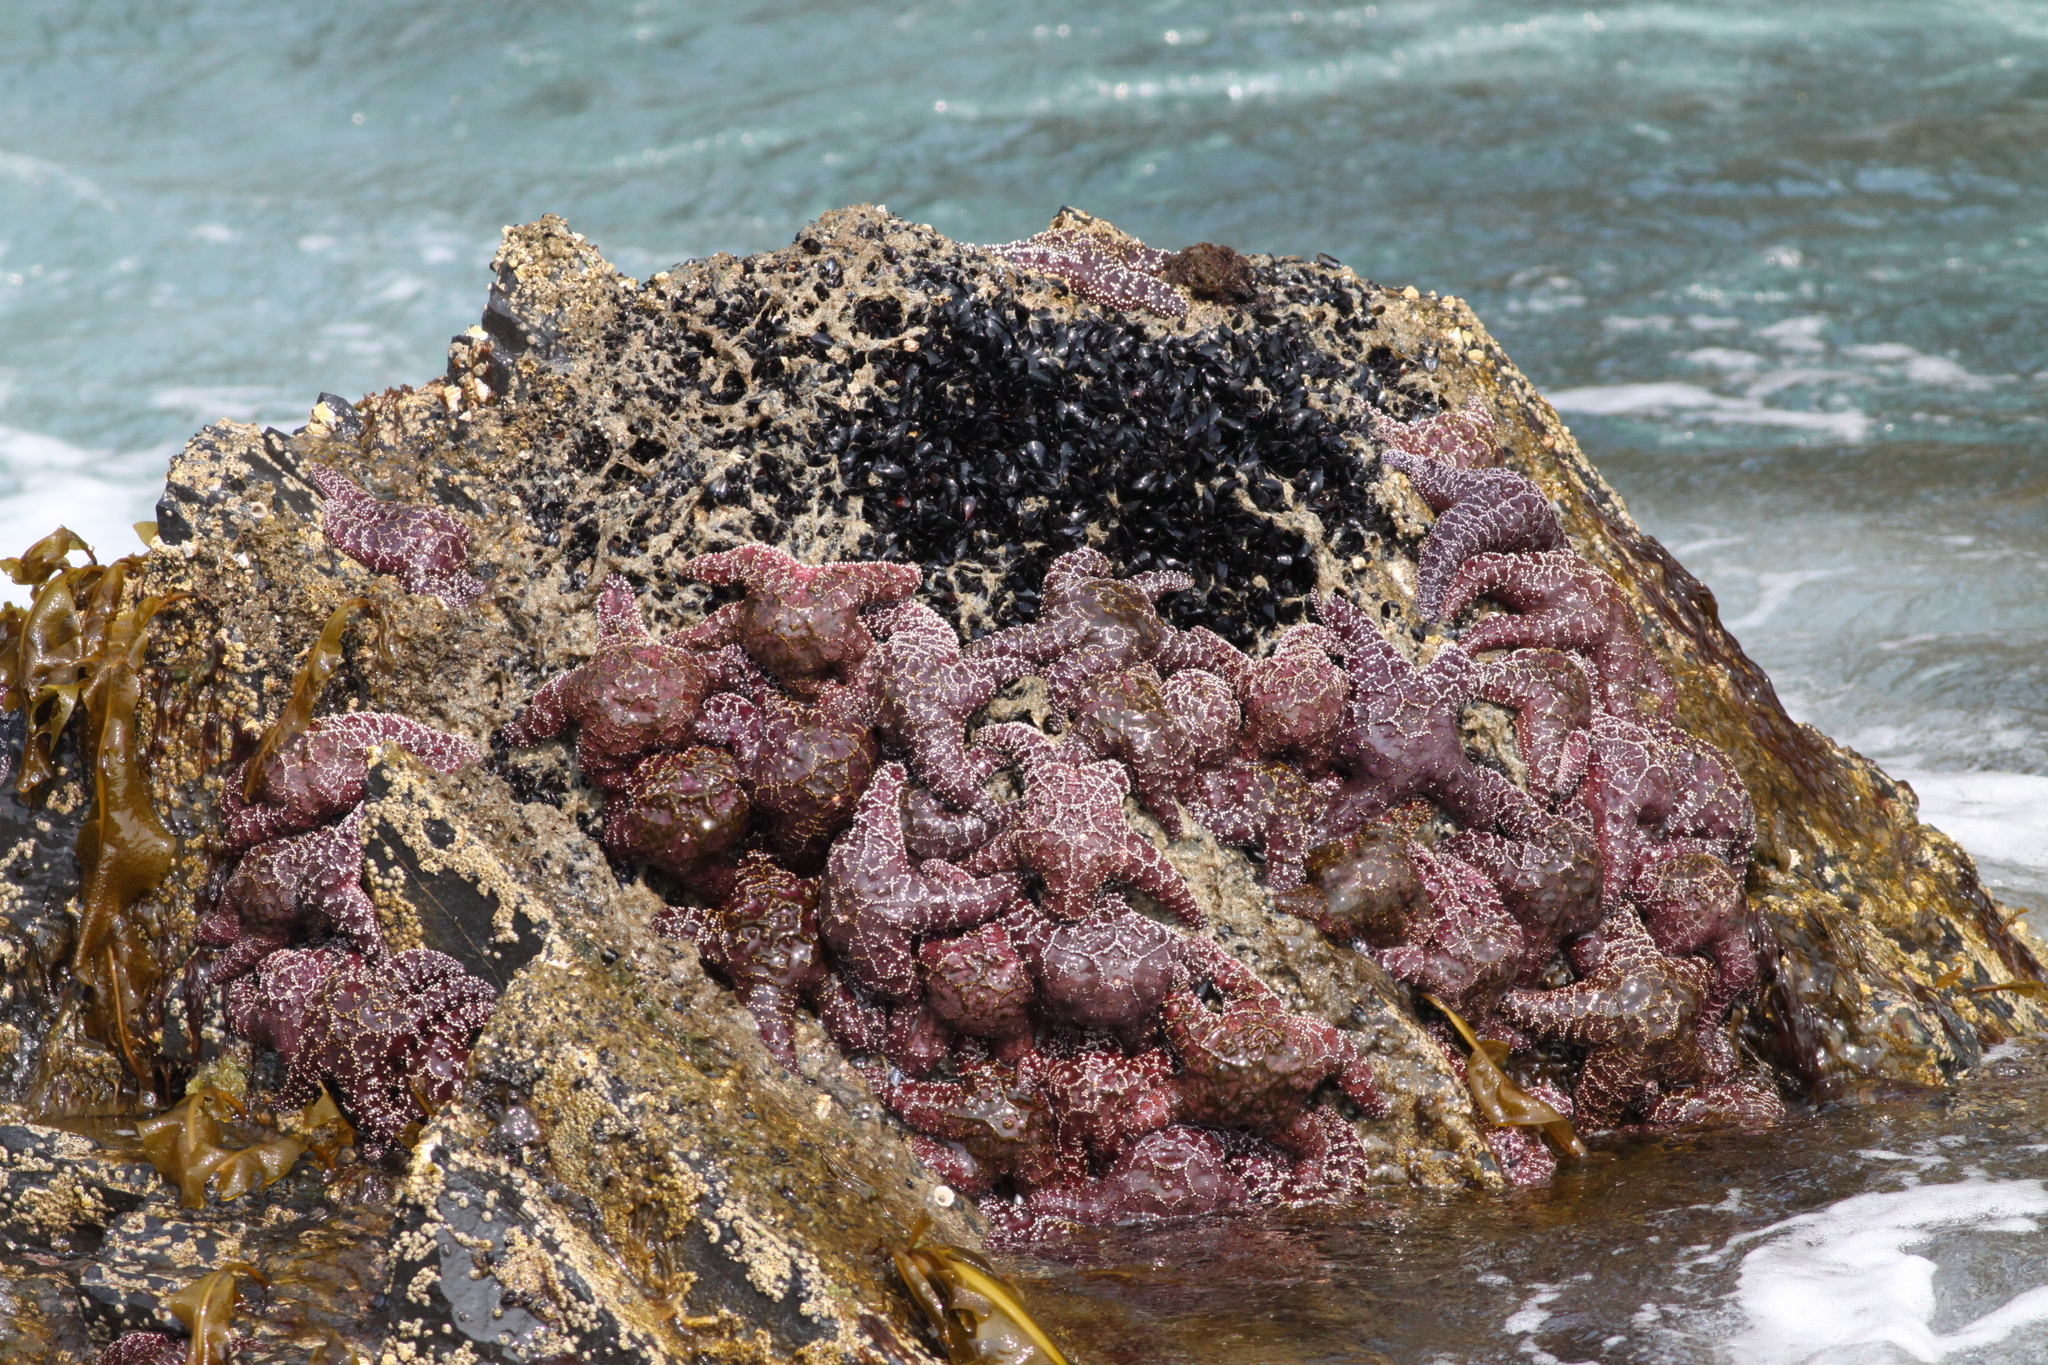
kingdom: Animalia
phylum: Echinodermata
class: Asteroidea
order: Forcipulatida
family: Asteriidae
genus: Pisaster
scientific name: Pisaster ochraceus
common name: Ochre stars
